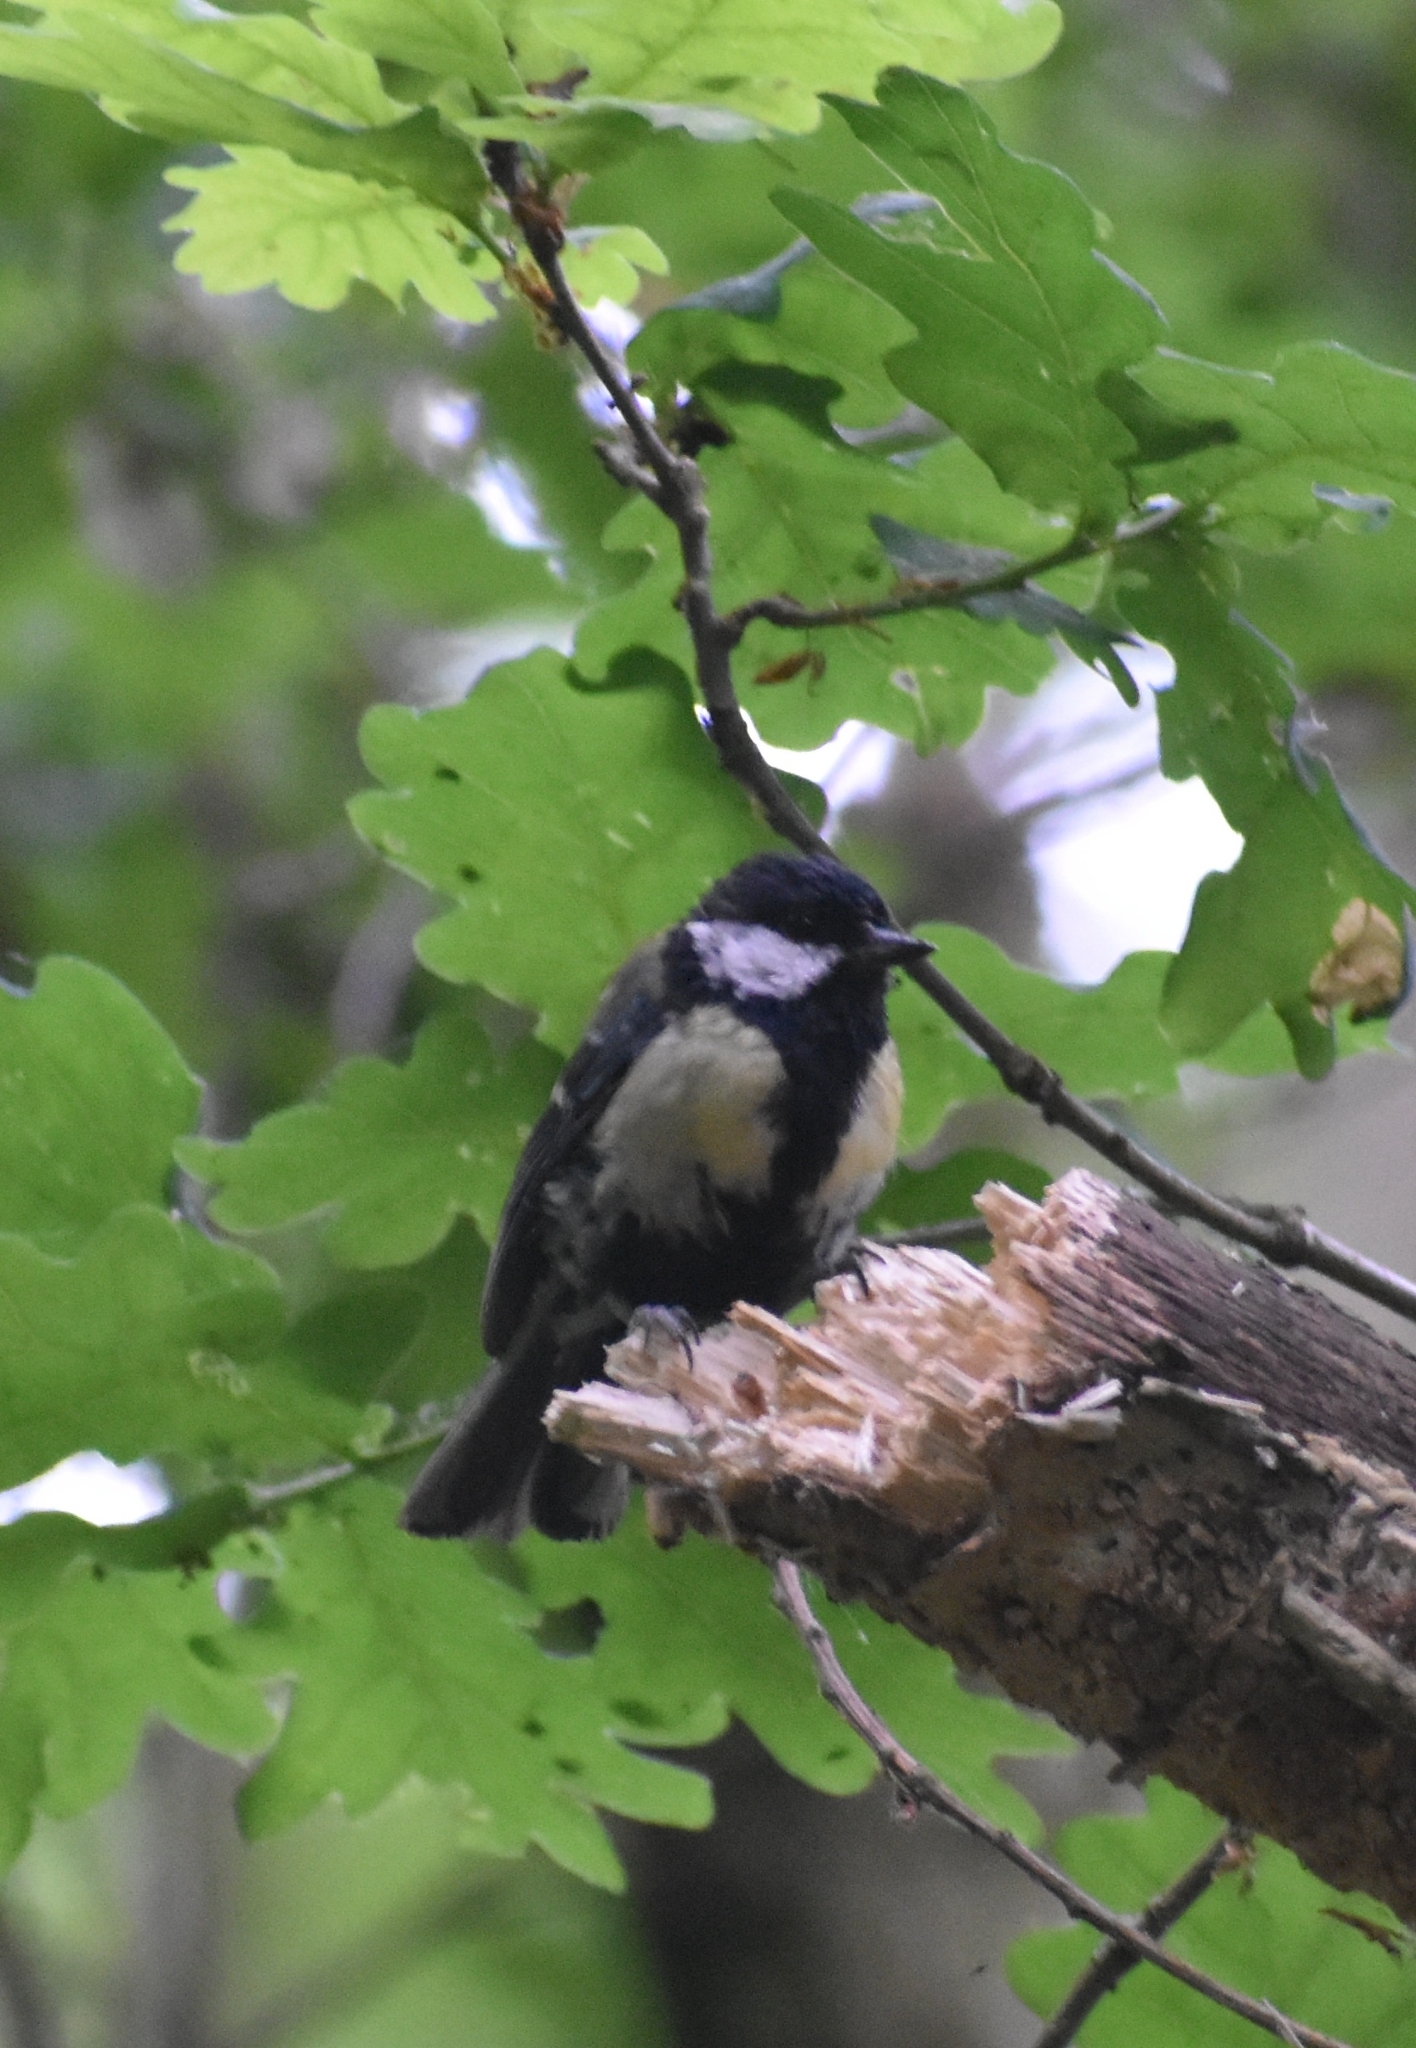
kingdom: Animalia
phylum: Chordata
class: Aves
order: Passeriformes
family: Paridae
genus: Parus
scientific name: Parus major
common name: Great tit
